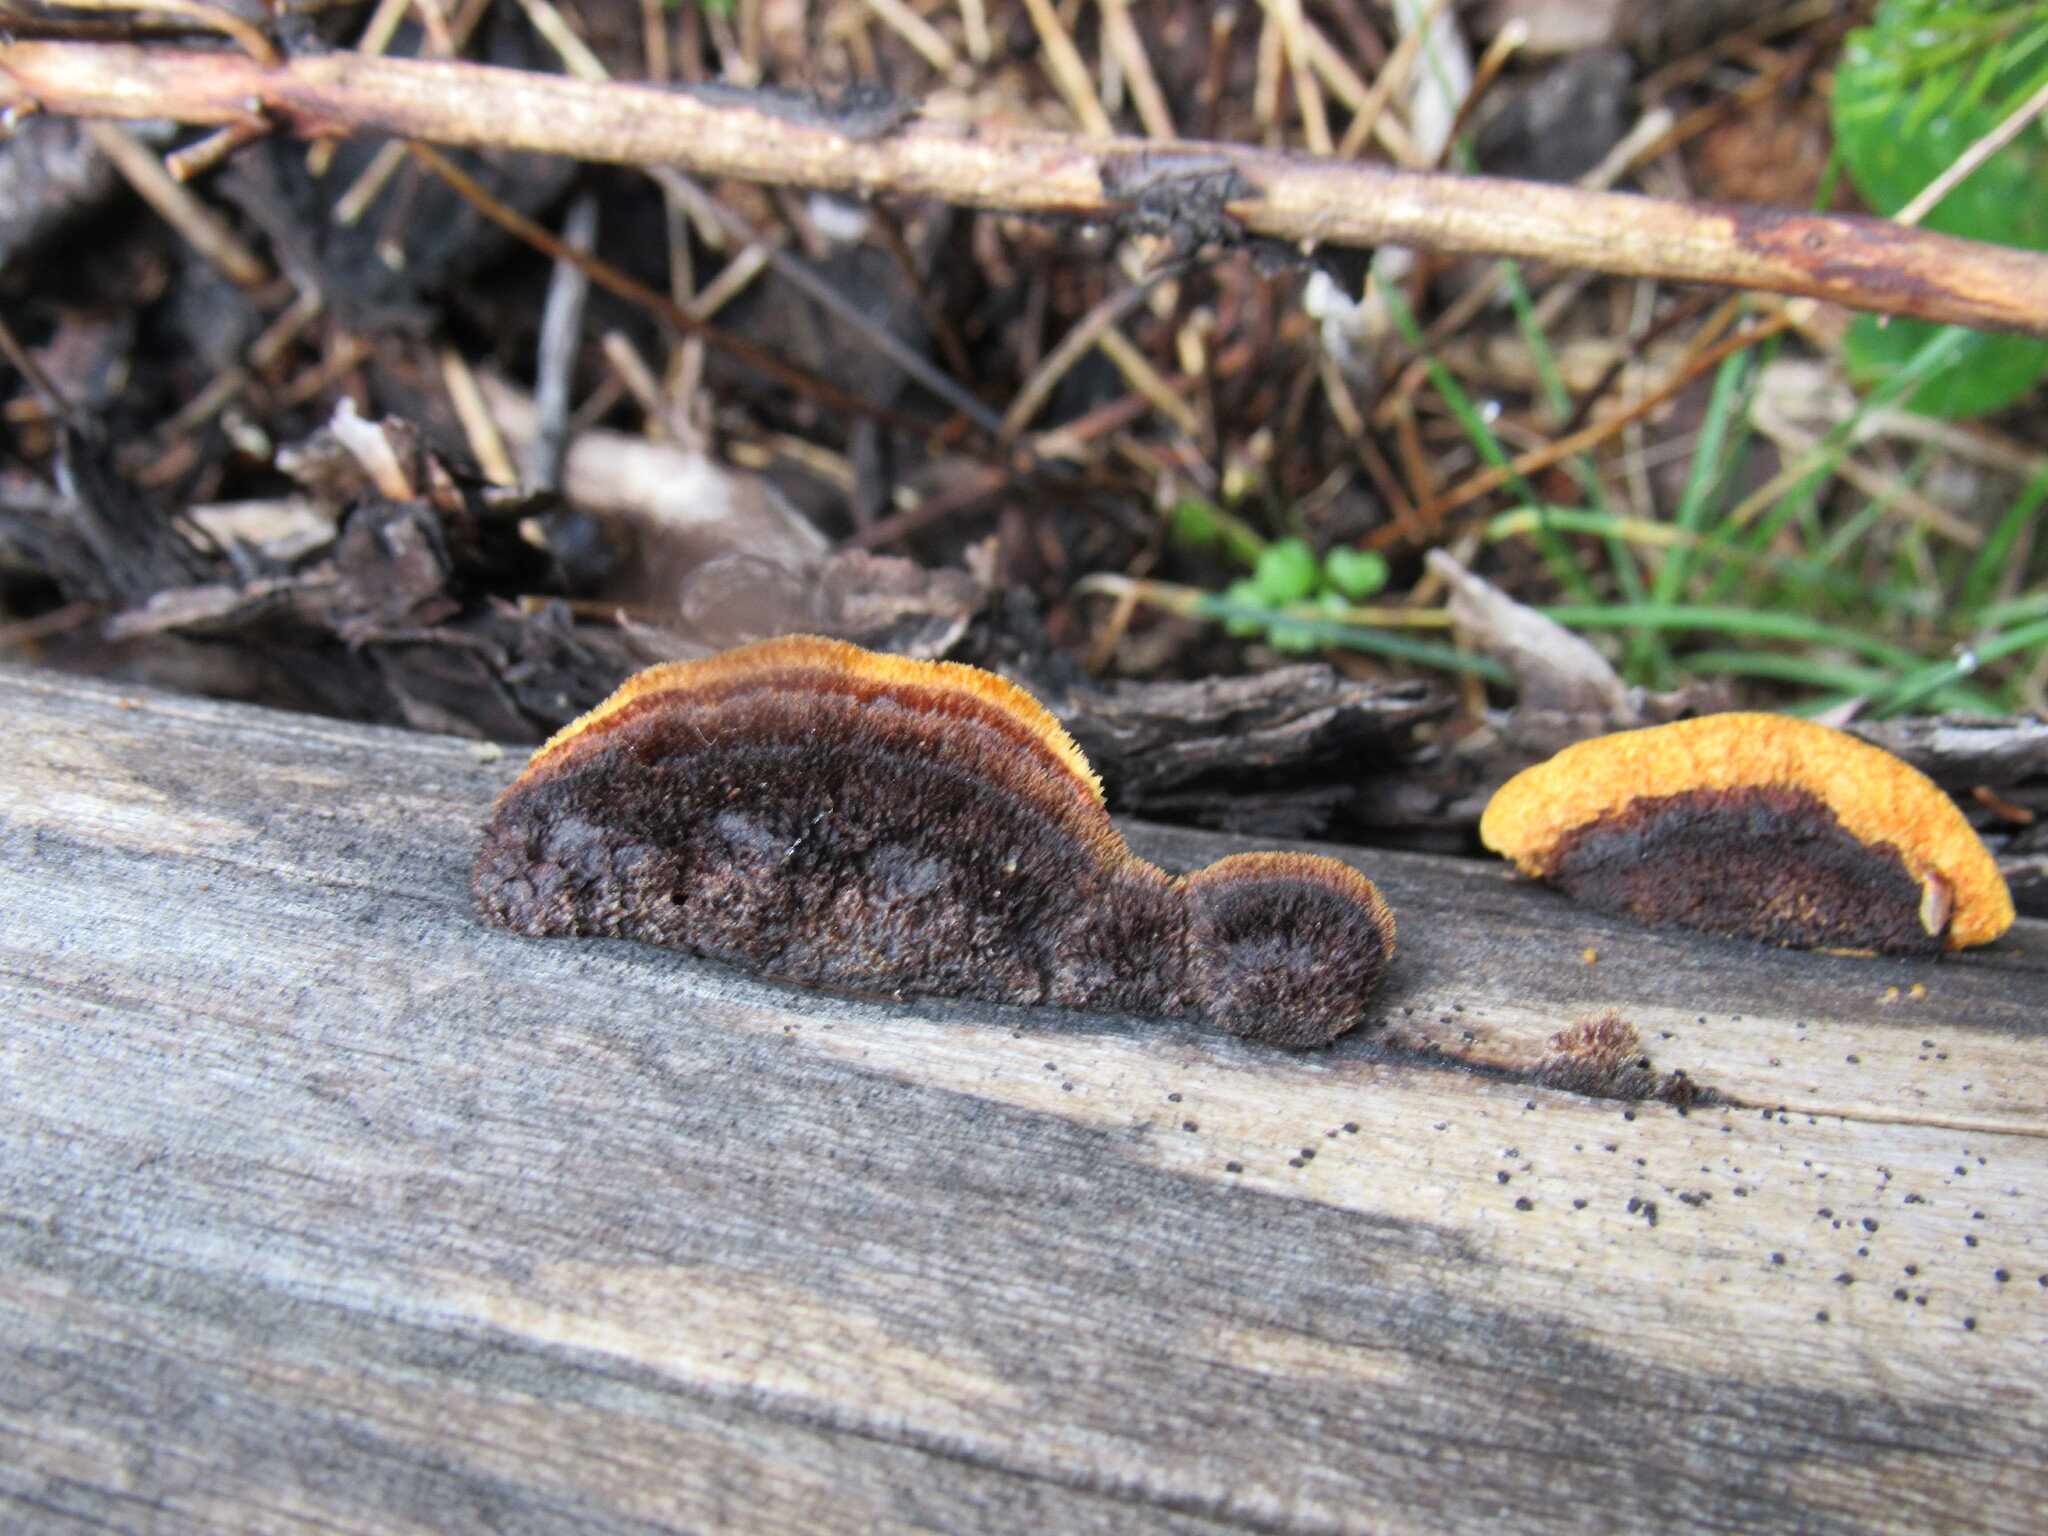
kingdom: Fungi
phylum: Basidiomycota
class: Agaricomycetes
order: Gloeophyllales
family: Gloeophyllaceae
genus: Gloeophyllum
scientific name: Gloeophyllum sepiarium
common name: Conifer mazegill
